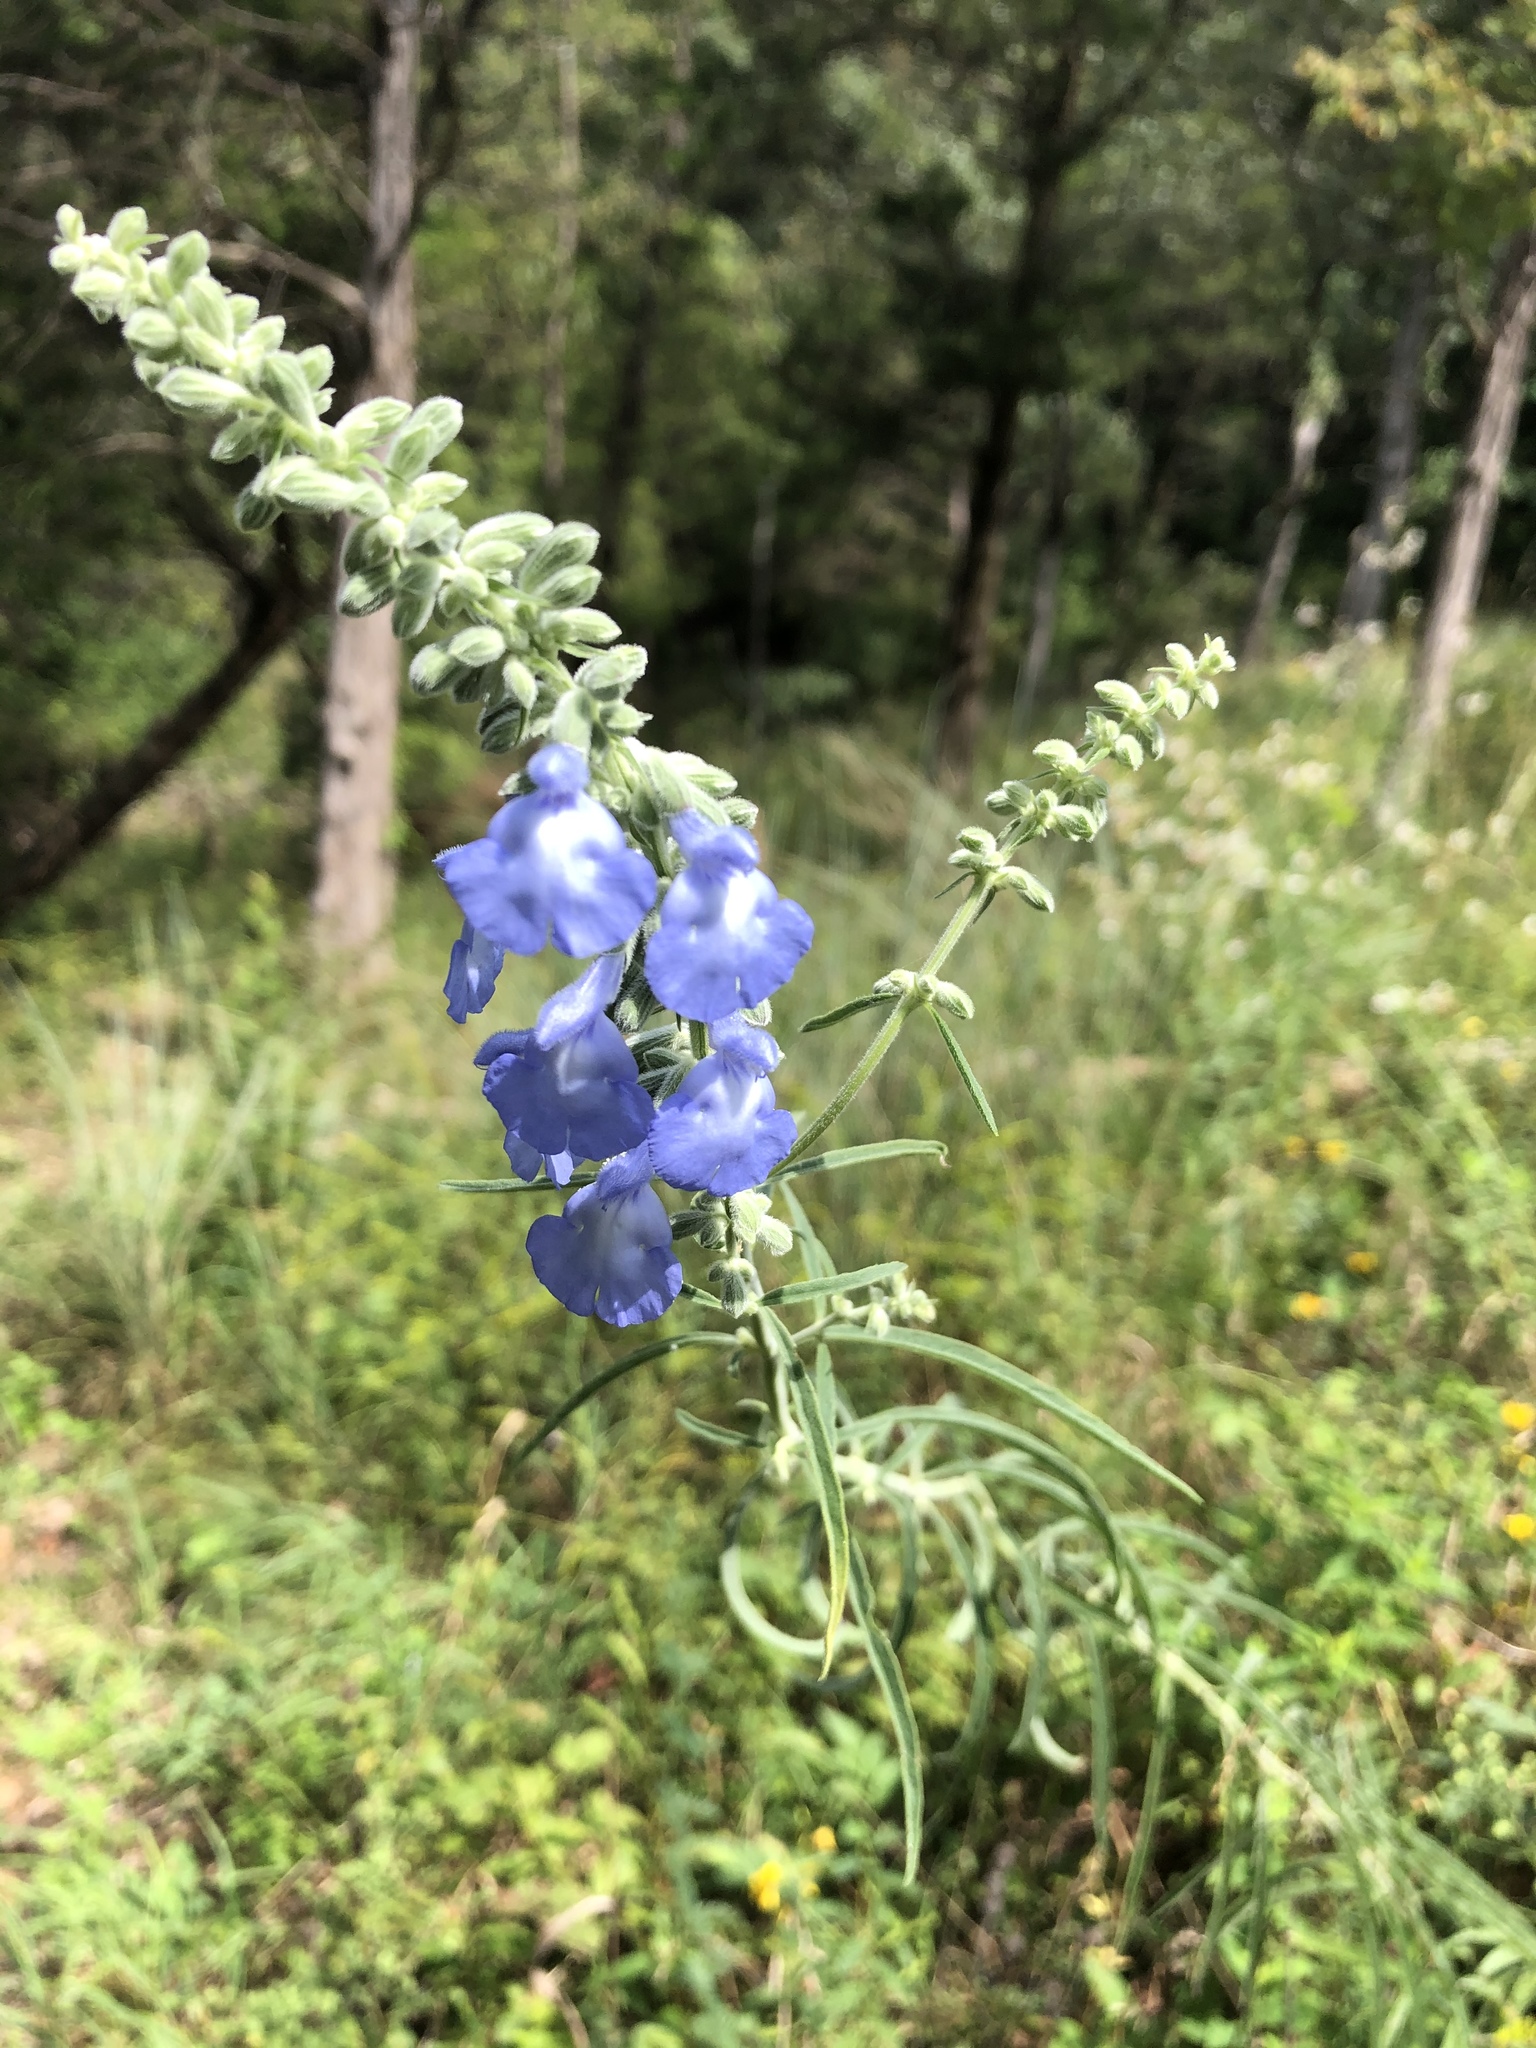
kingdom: Plantae
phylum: Tracheophyta
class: Magnoliopsida
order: Lamiales
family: Lamiaceae
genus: Salvia
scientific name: Salvia azurea
